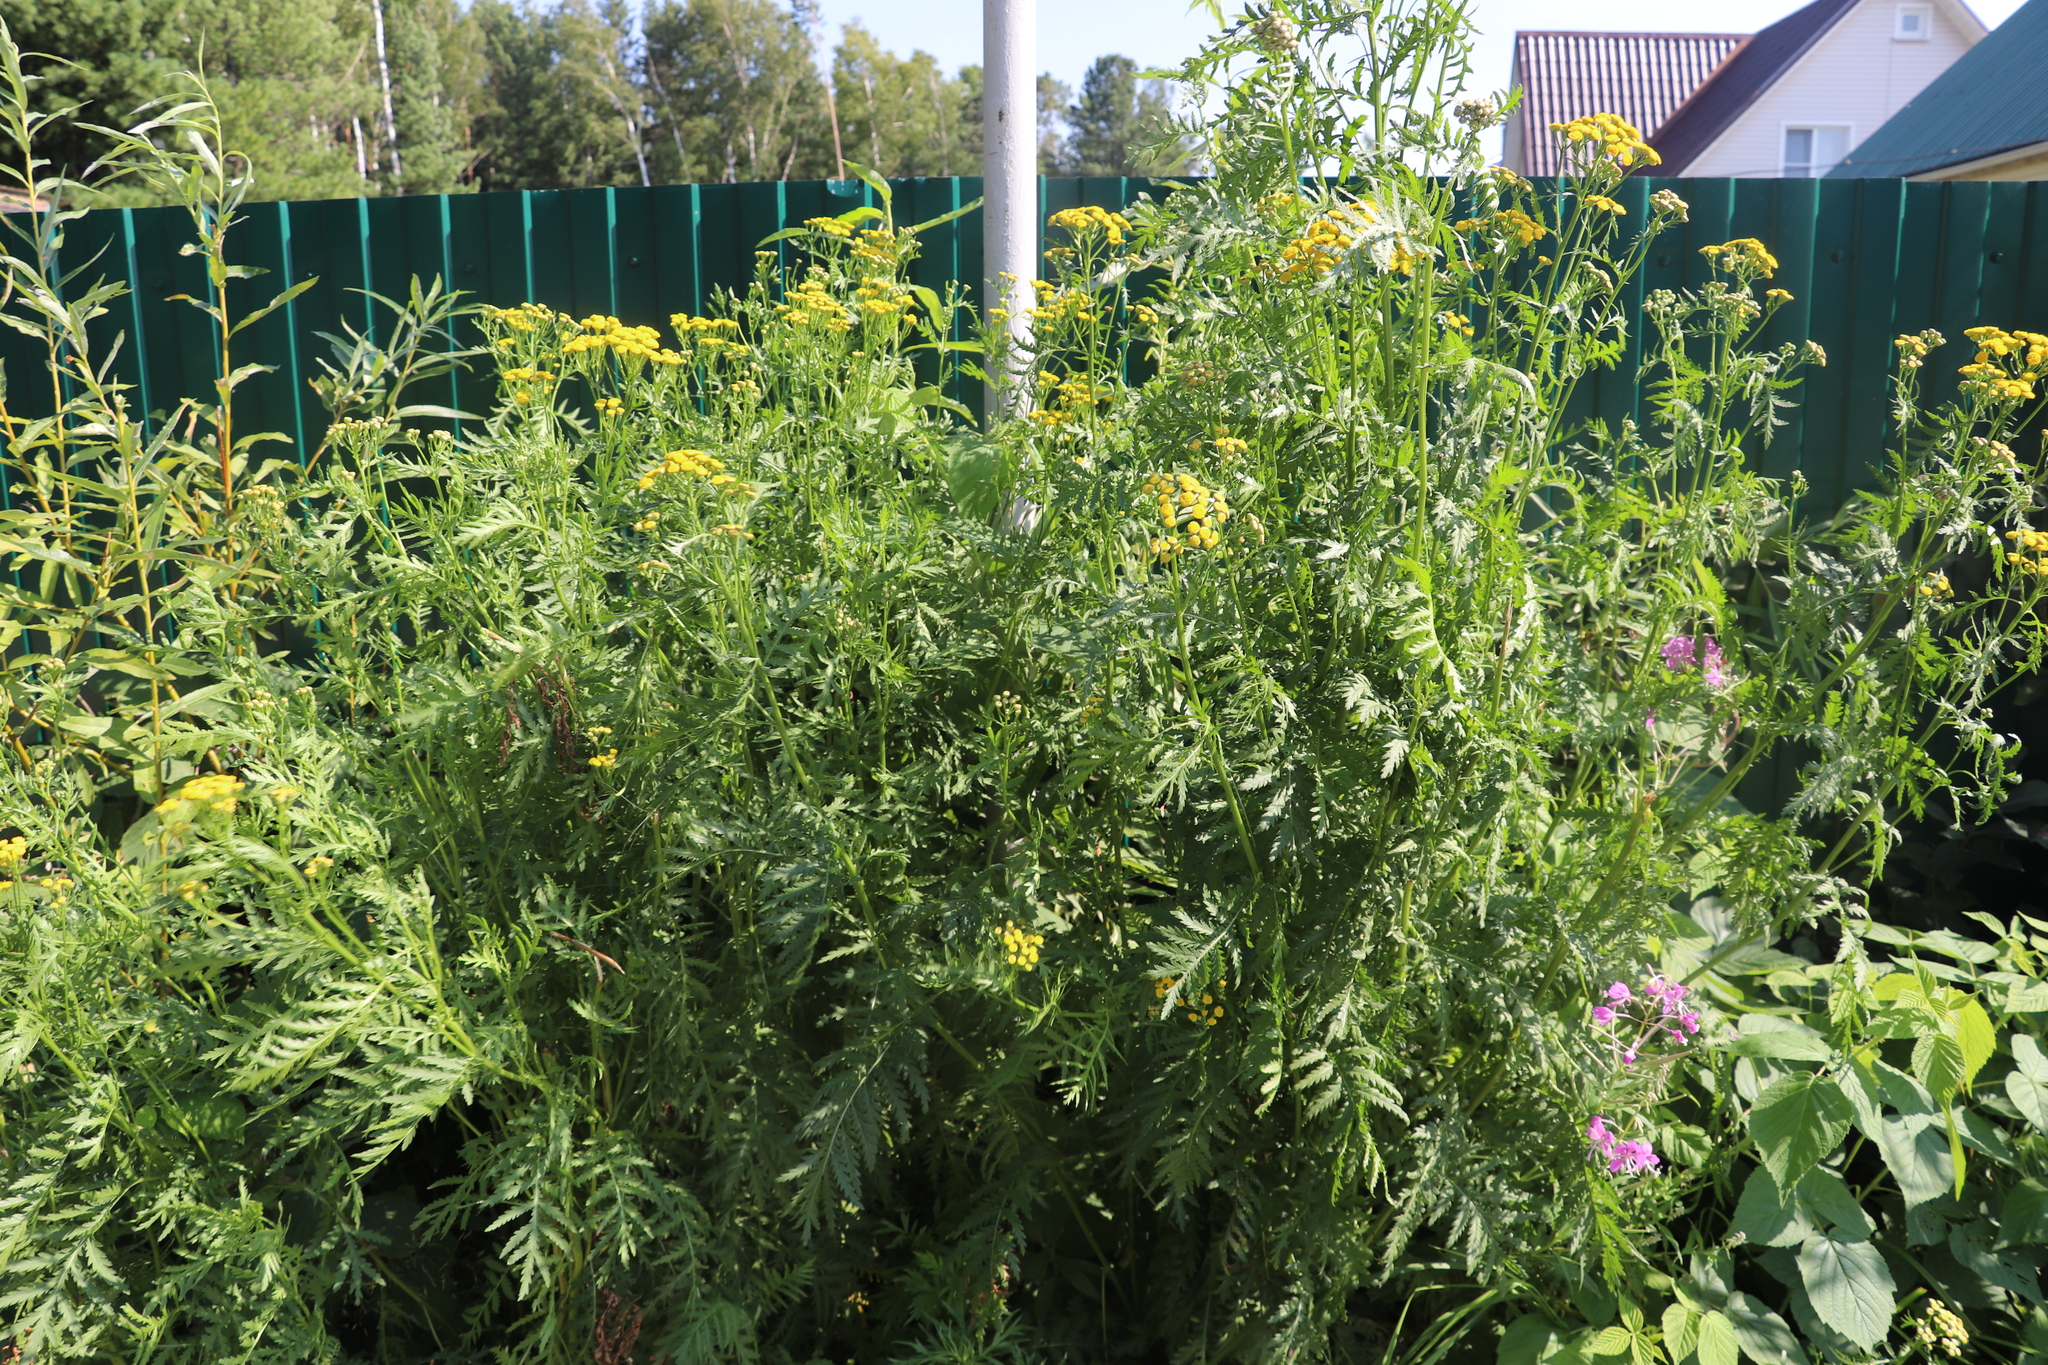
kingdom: Plantae
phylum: Tracheophyta
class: Magnoliopsida
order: Asterales
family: Asteraceae
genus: Tanacetum
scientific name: Tanacetum vulgare
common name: Common tansy
